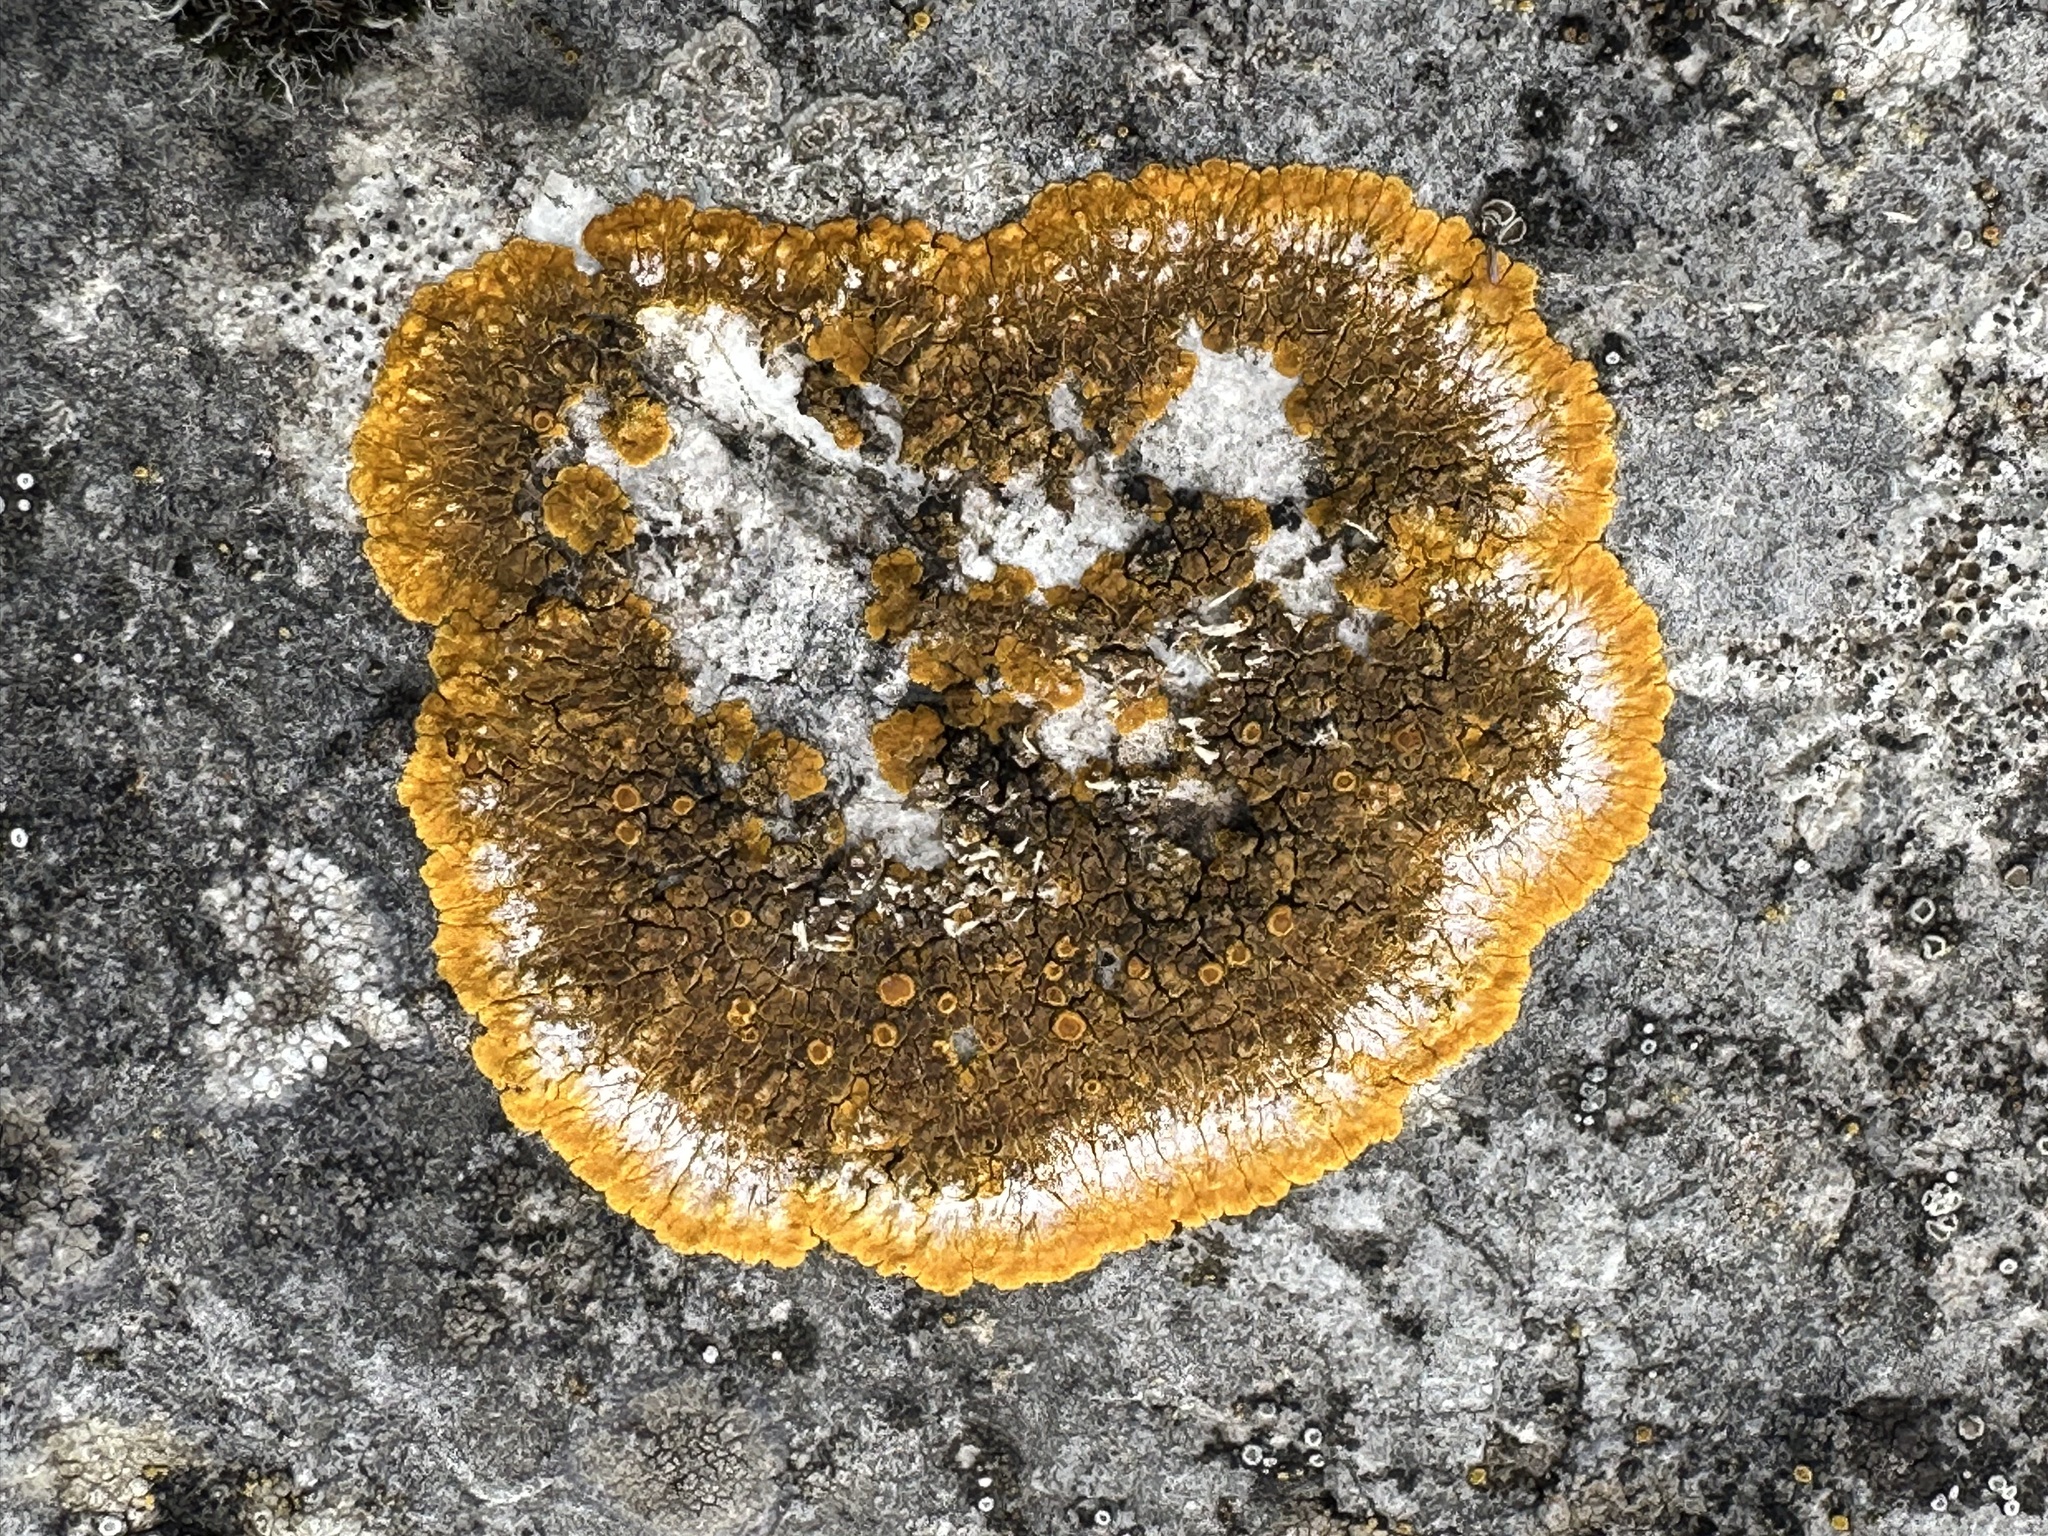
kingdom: Fungi
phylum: Ascomycota
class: Lecanoromycetes
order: Teloschistales
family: Teloschistaceae
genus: Variospora
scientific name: Variospora aurantia
